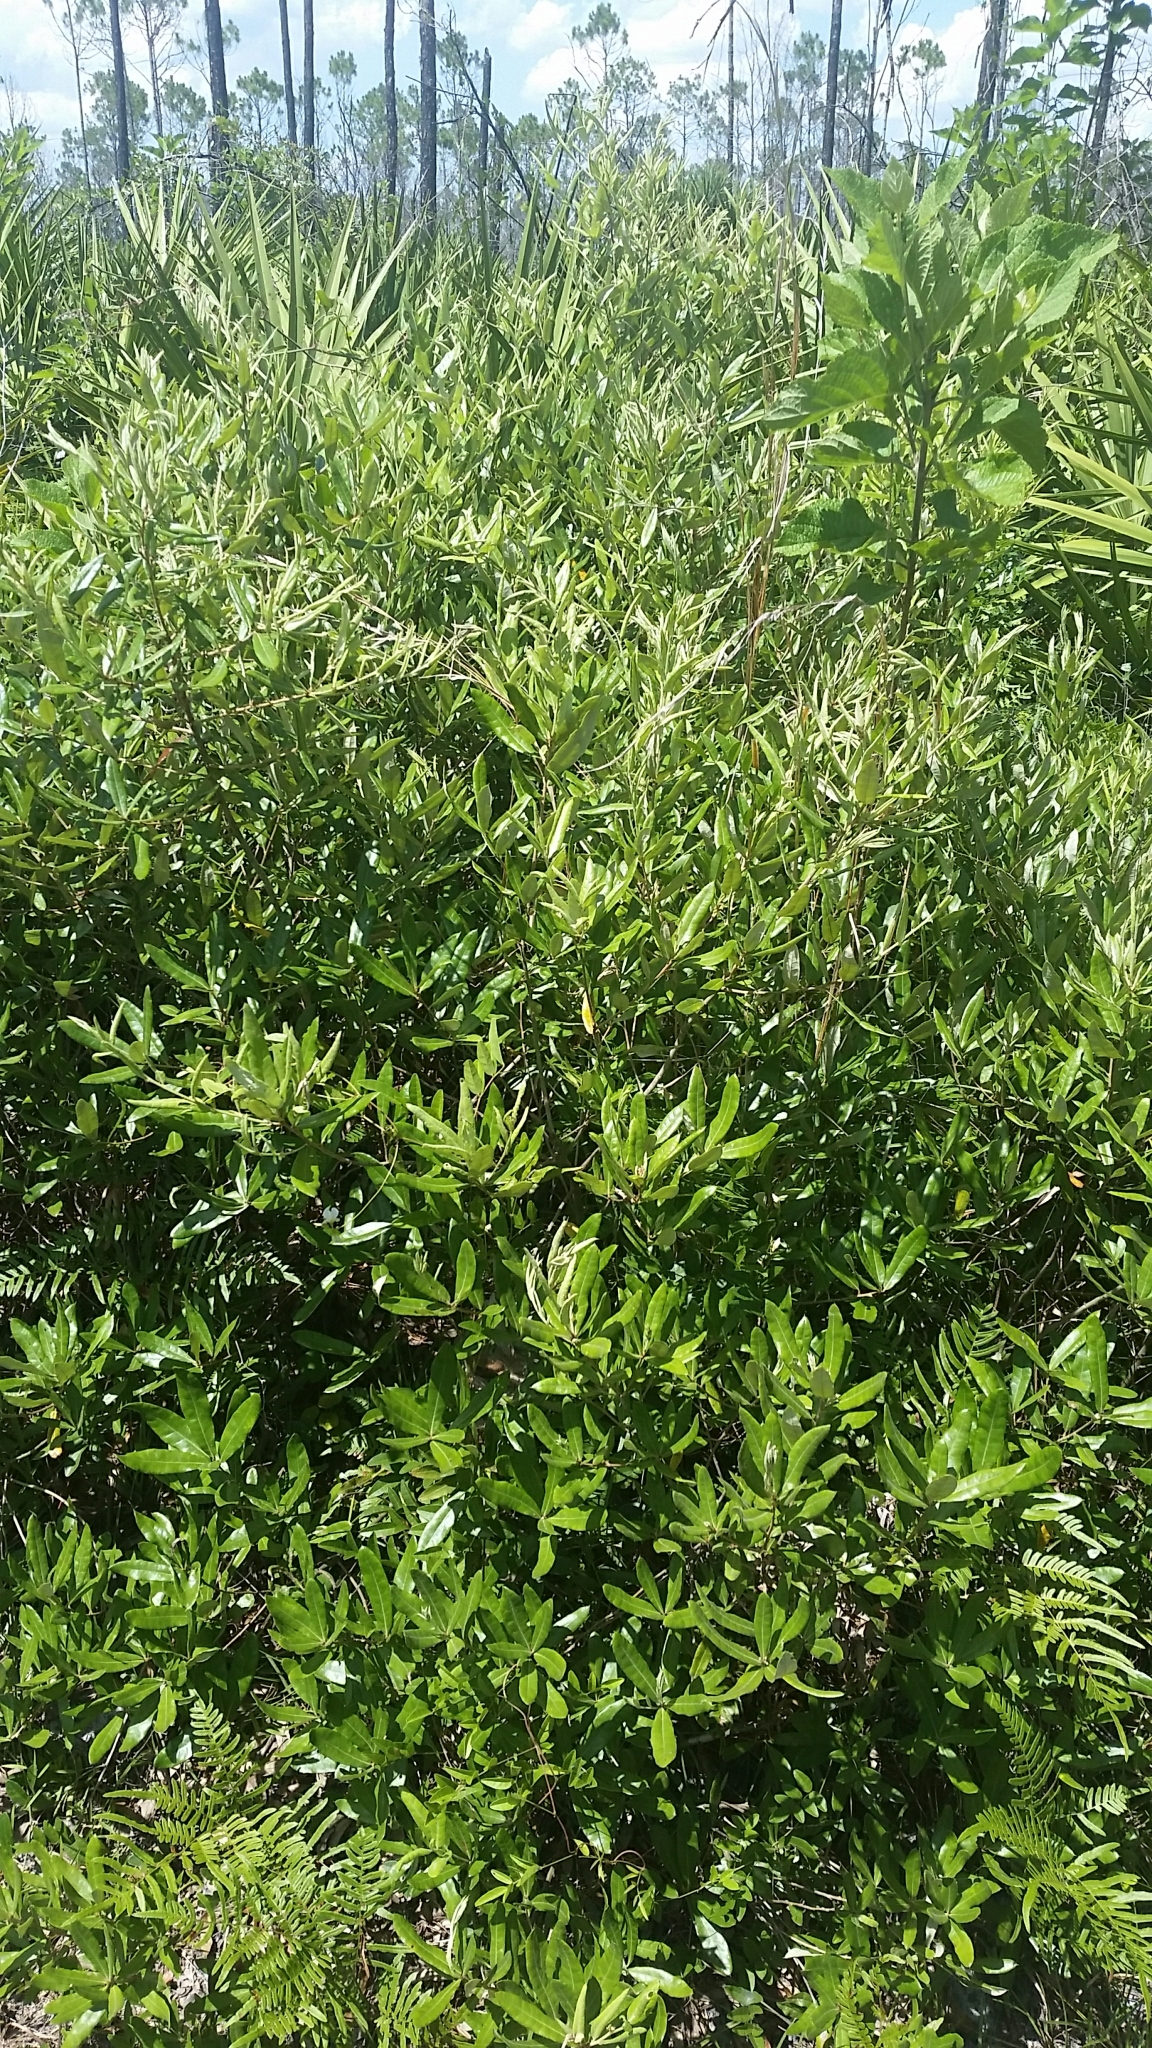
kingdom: Plantae
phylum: Tracheophyta
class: Magnoliopsida
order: Fagales
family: Fagaceae
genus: Quercus
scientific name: Quercus pumila
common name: Runner oak
